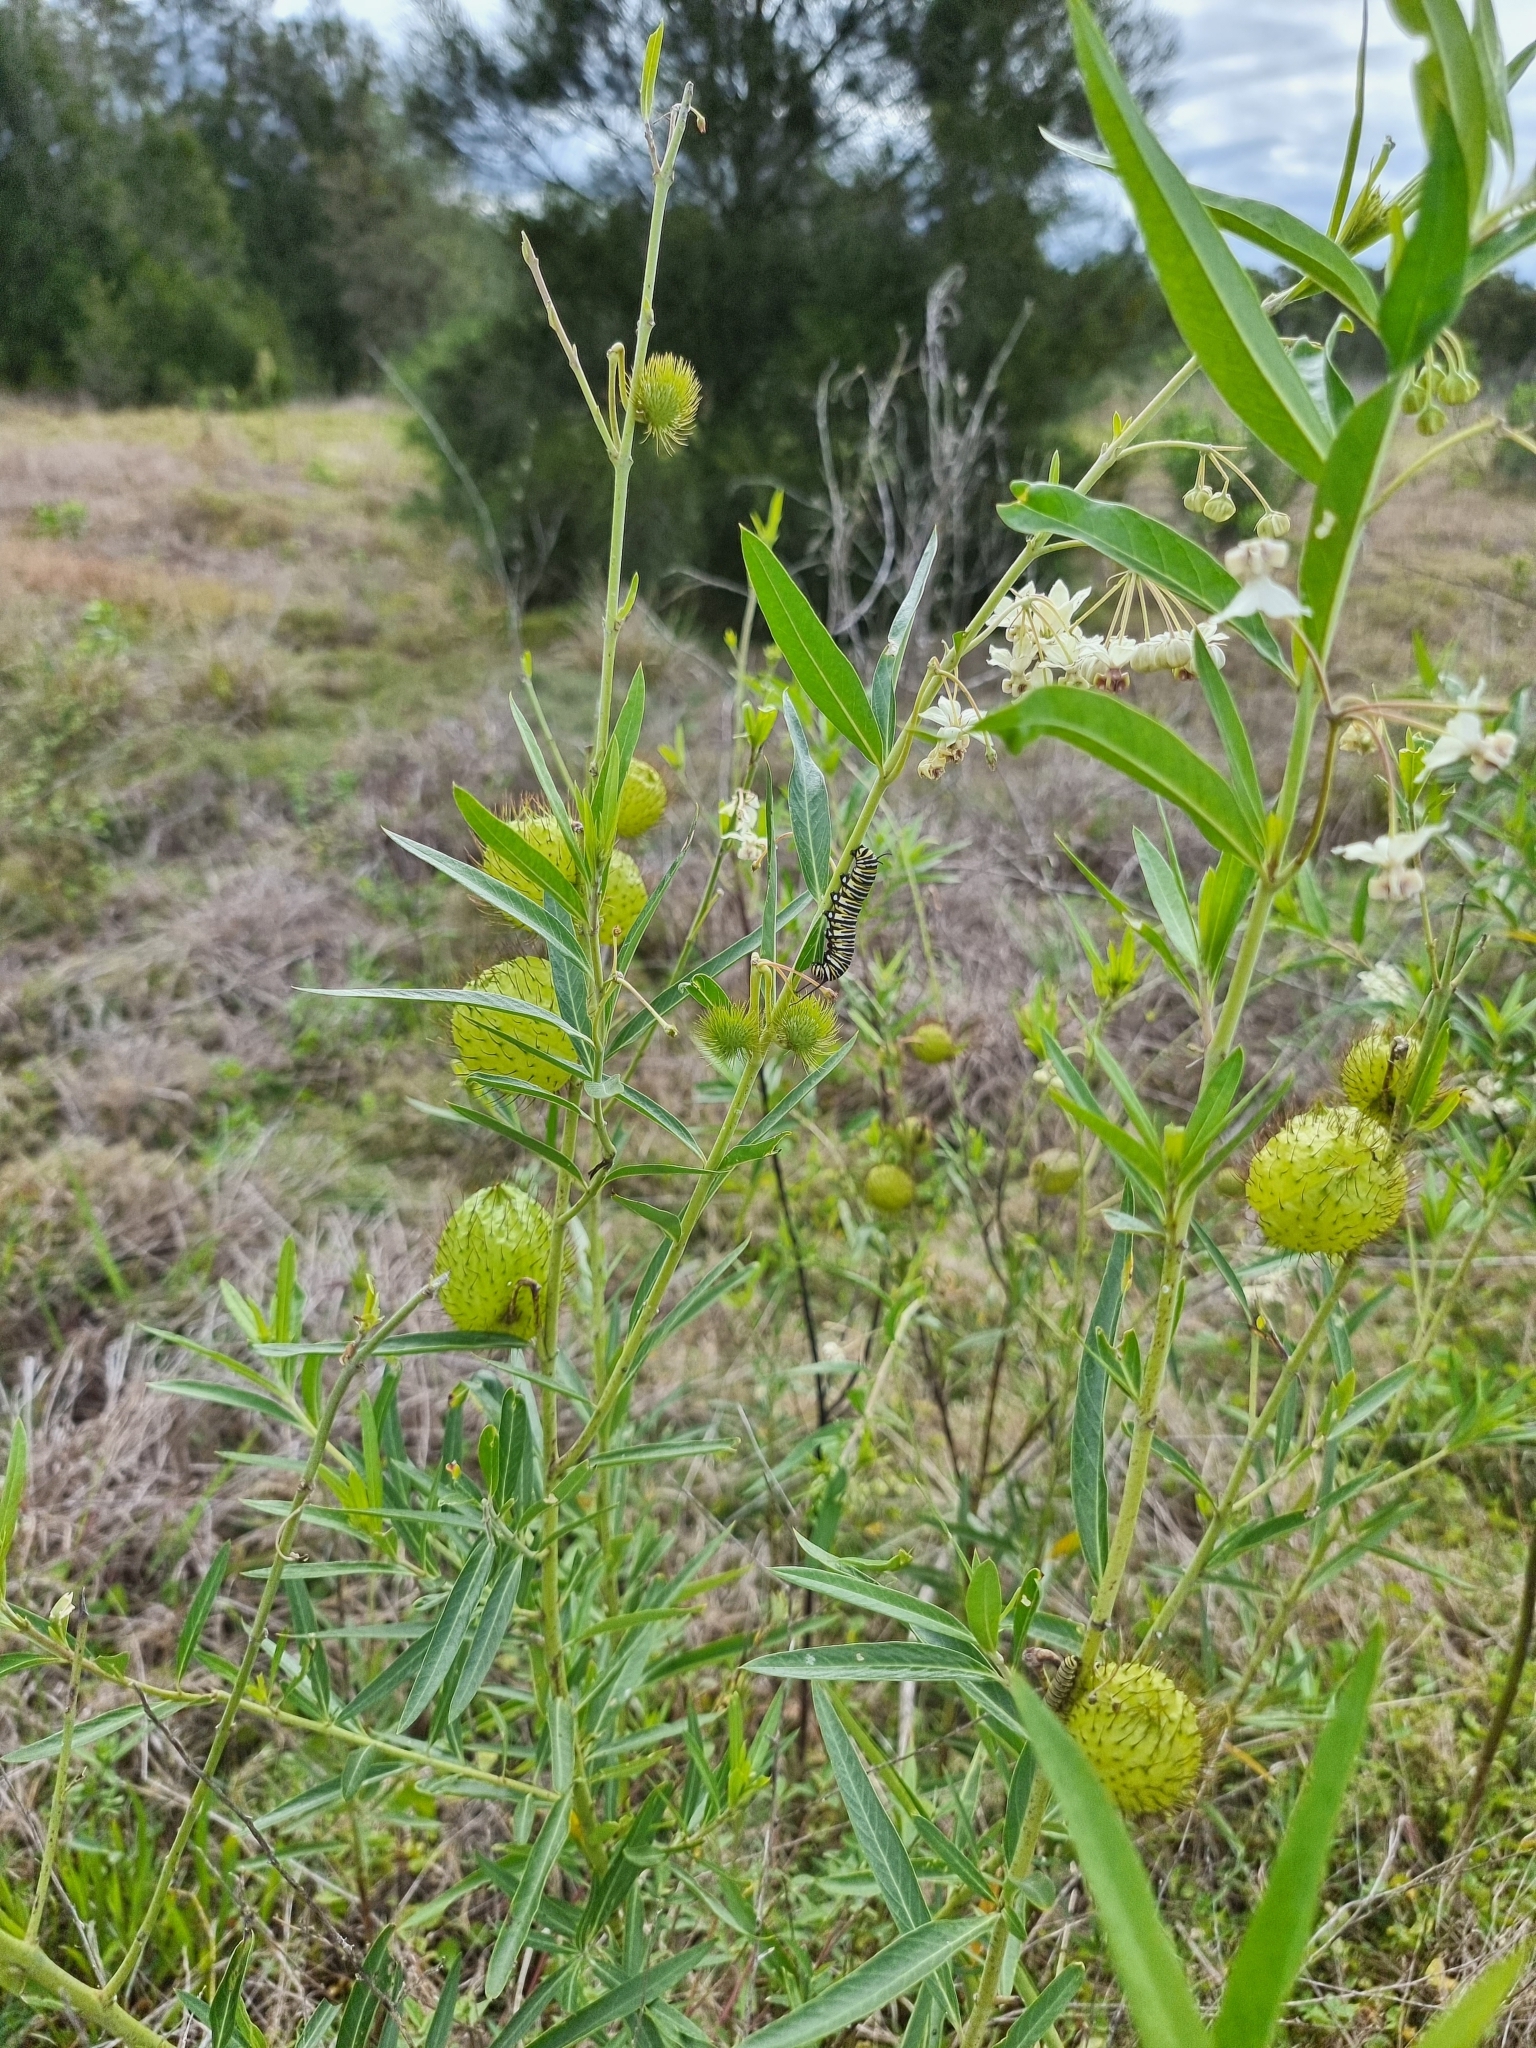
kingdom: Plantae
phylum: Tracheophyta
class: Magnoliopsida
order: Gentianales
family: Apocynaceae
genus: Gomphocarpus
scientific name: Gomphocarpus physocarpus
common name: Balloon cotton bush
